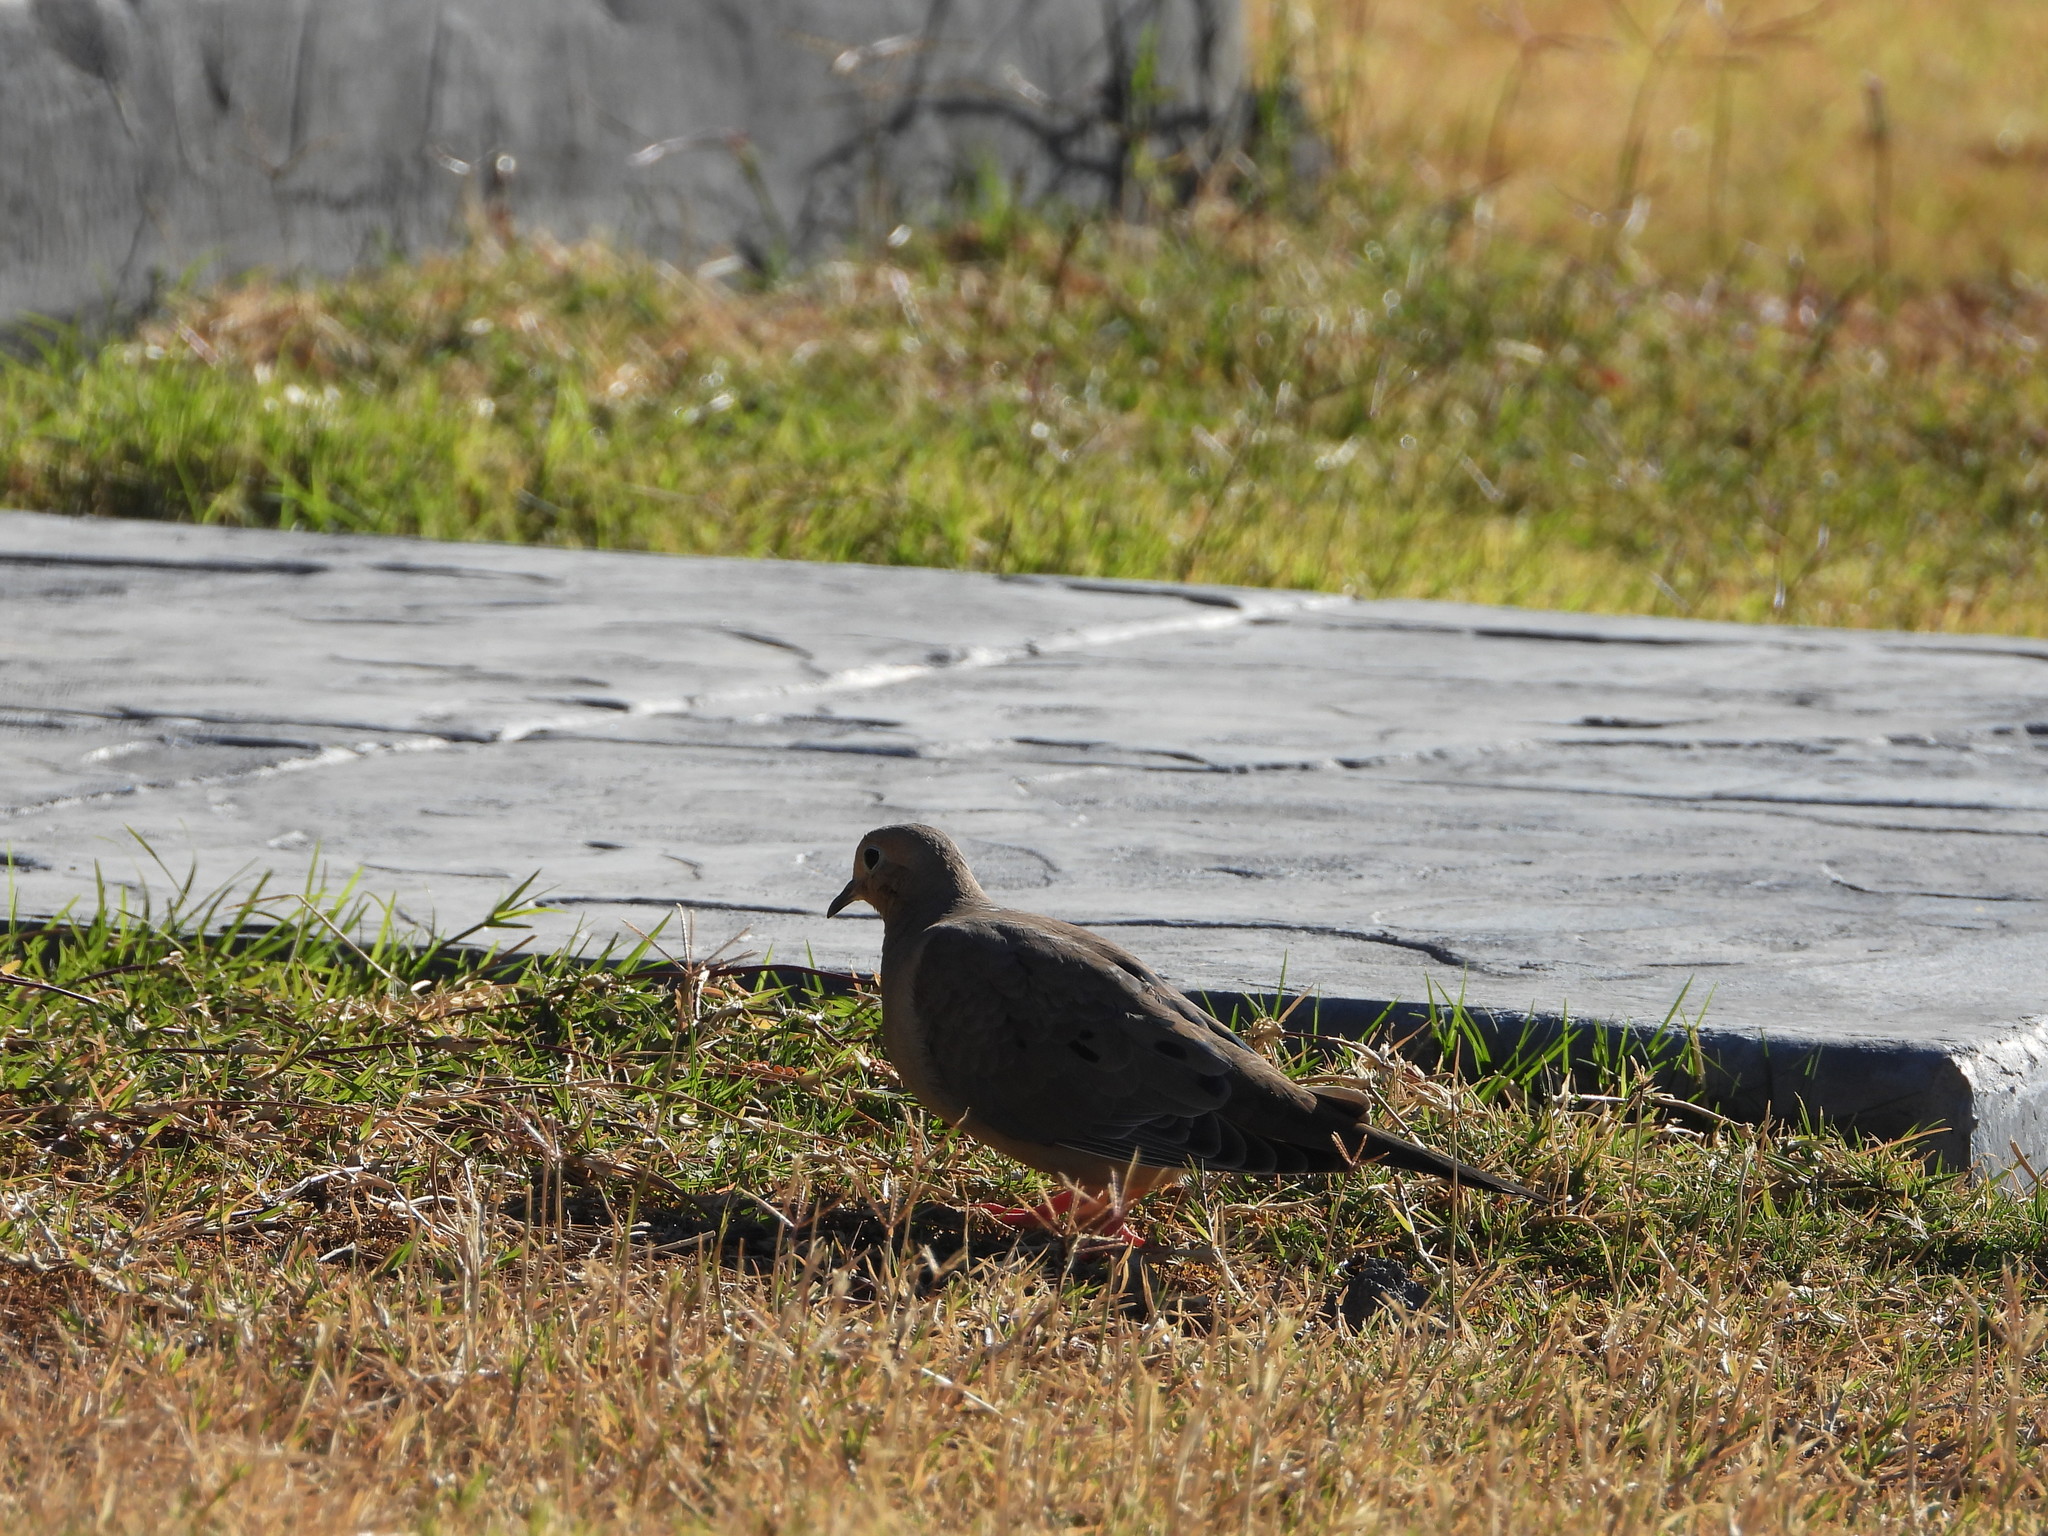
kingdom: Animalia
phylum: Chordata
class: Aves
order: Columbiformes
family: Columbidae
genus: Zenaida
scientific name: Zenaida macroura
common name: Mourning dove
